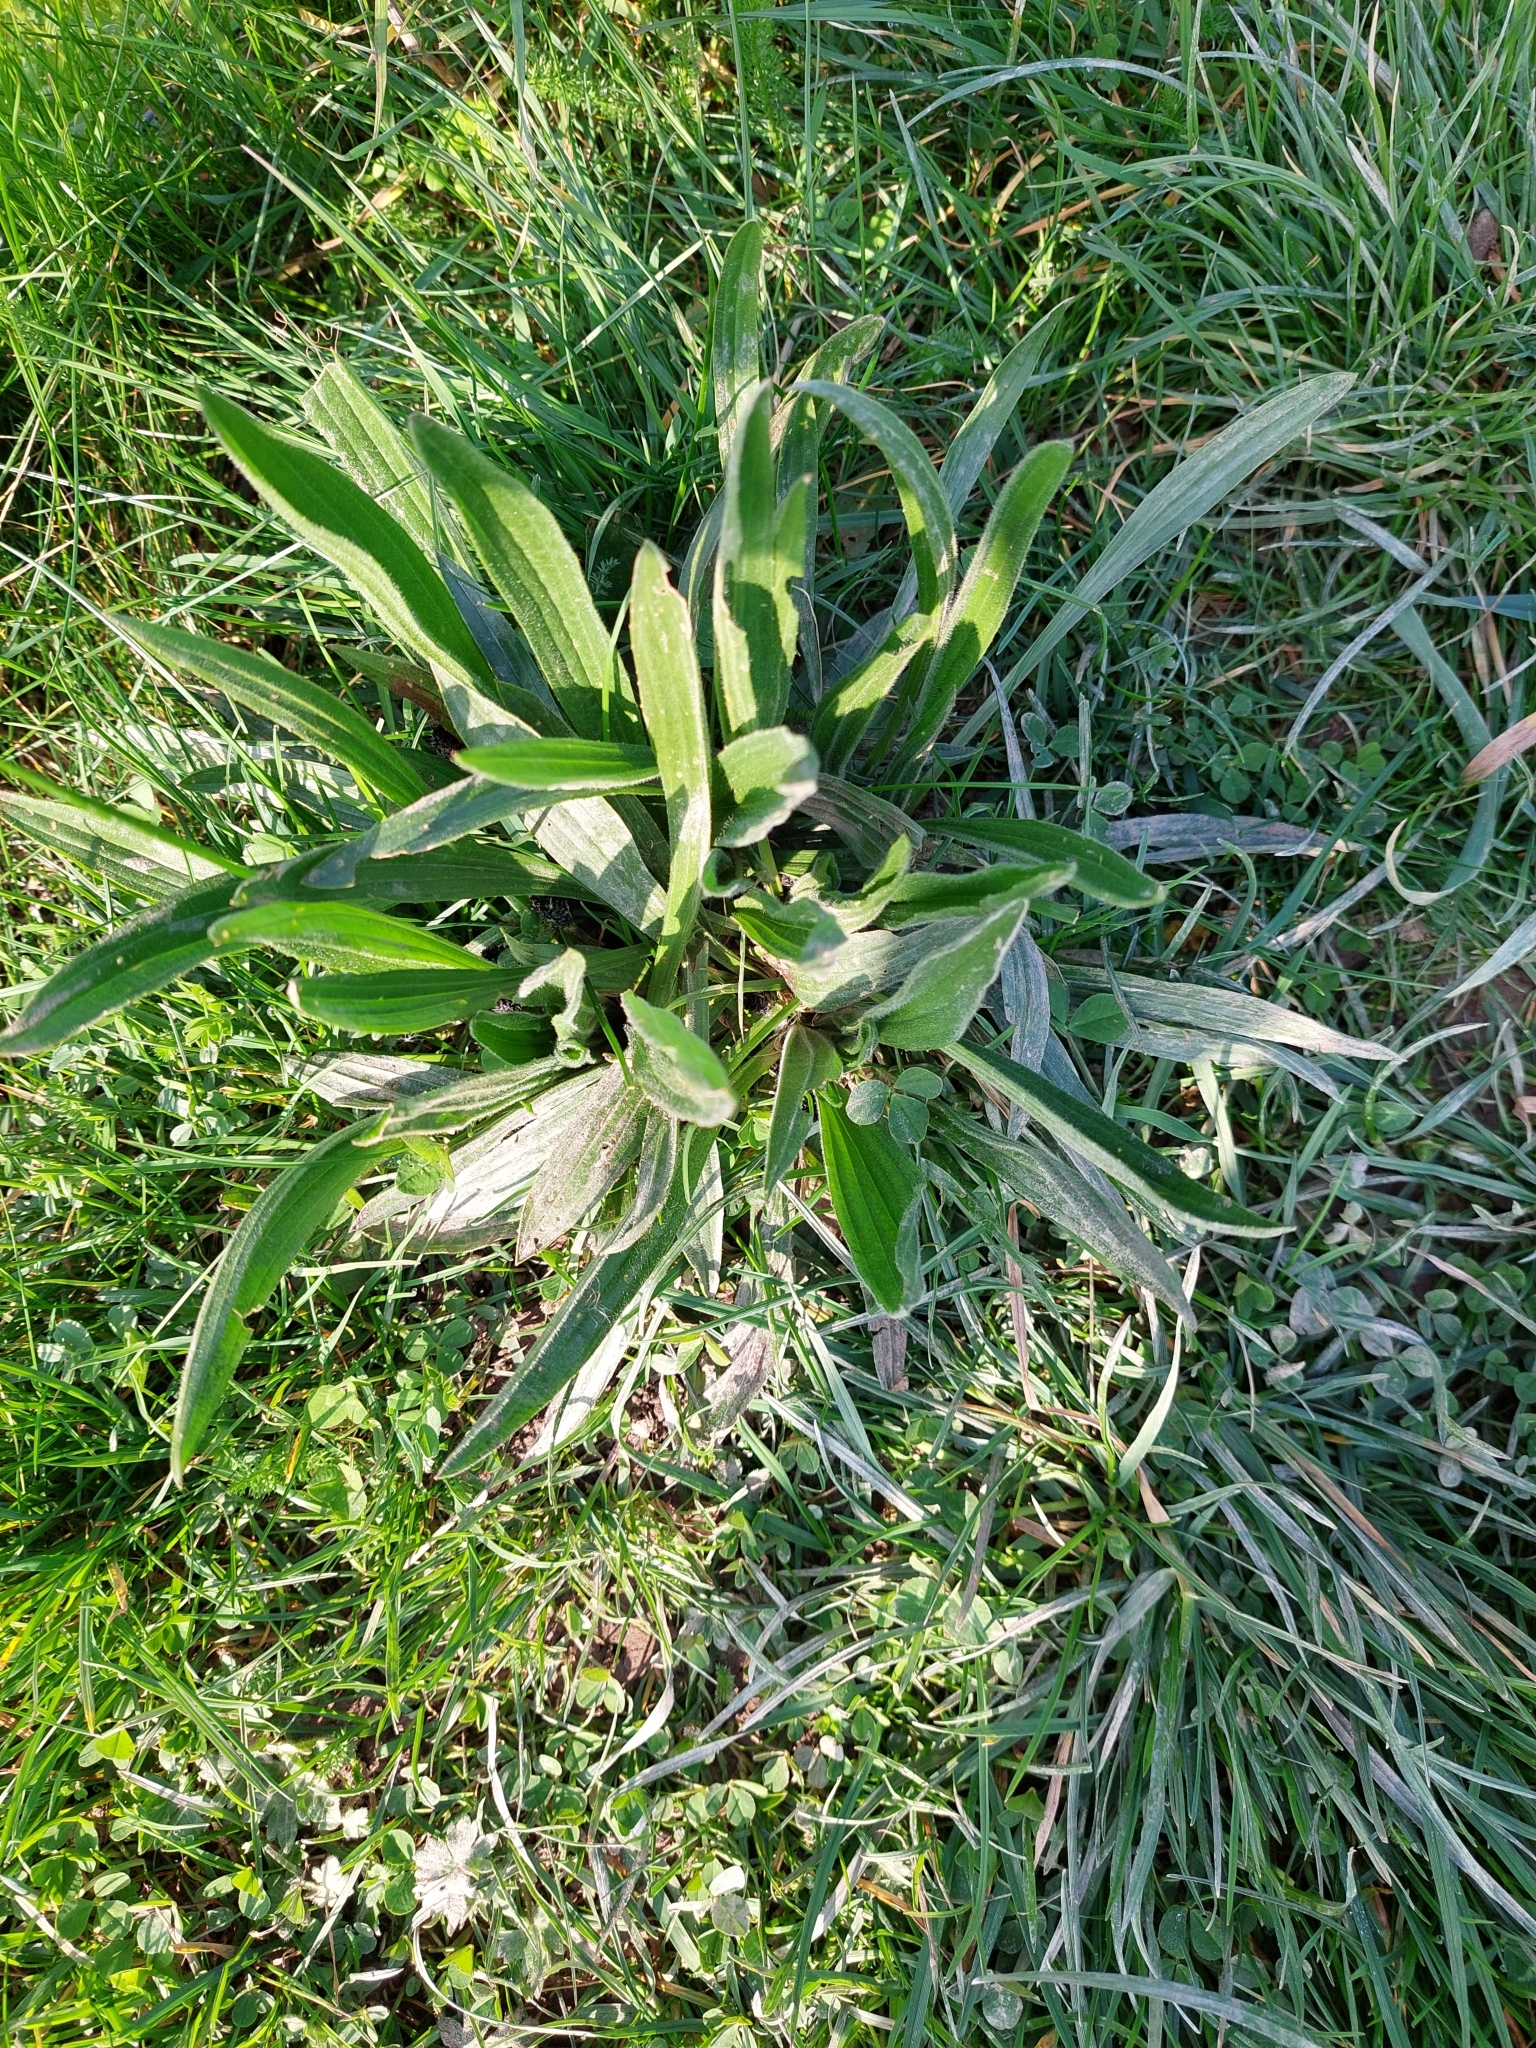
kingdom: Plantae
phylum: Tracheophyta
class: Magnoliopsida
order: Lamiales
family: Plantaginaceae
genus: Plantago
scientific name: Plantago lanceolata
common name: Ribwort plantain
